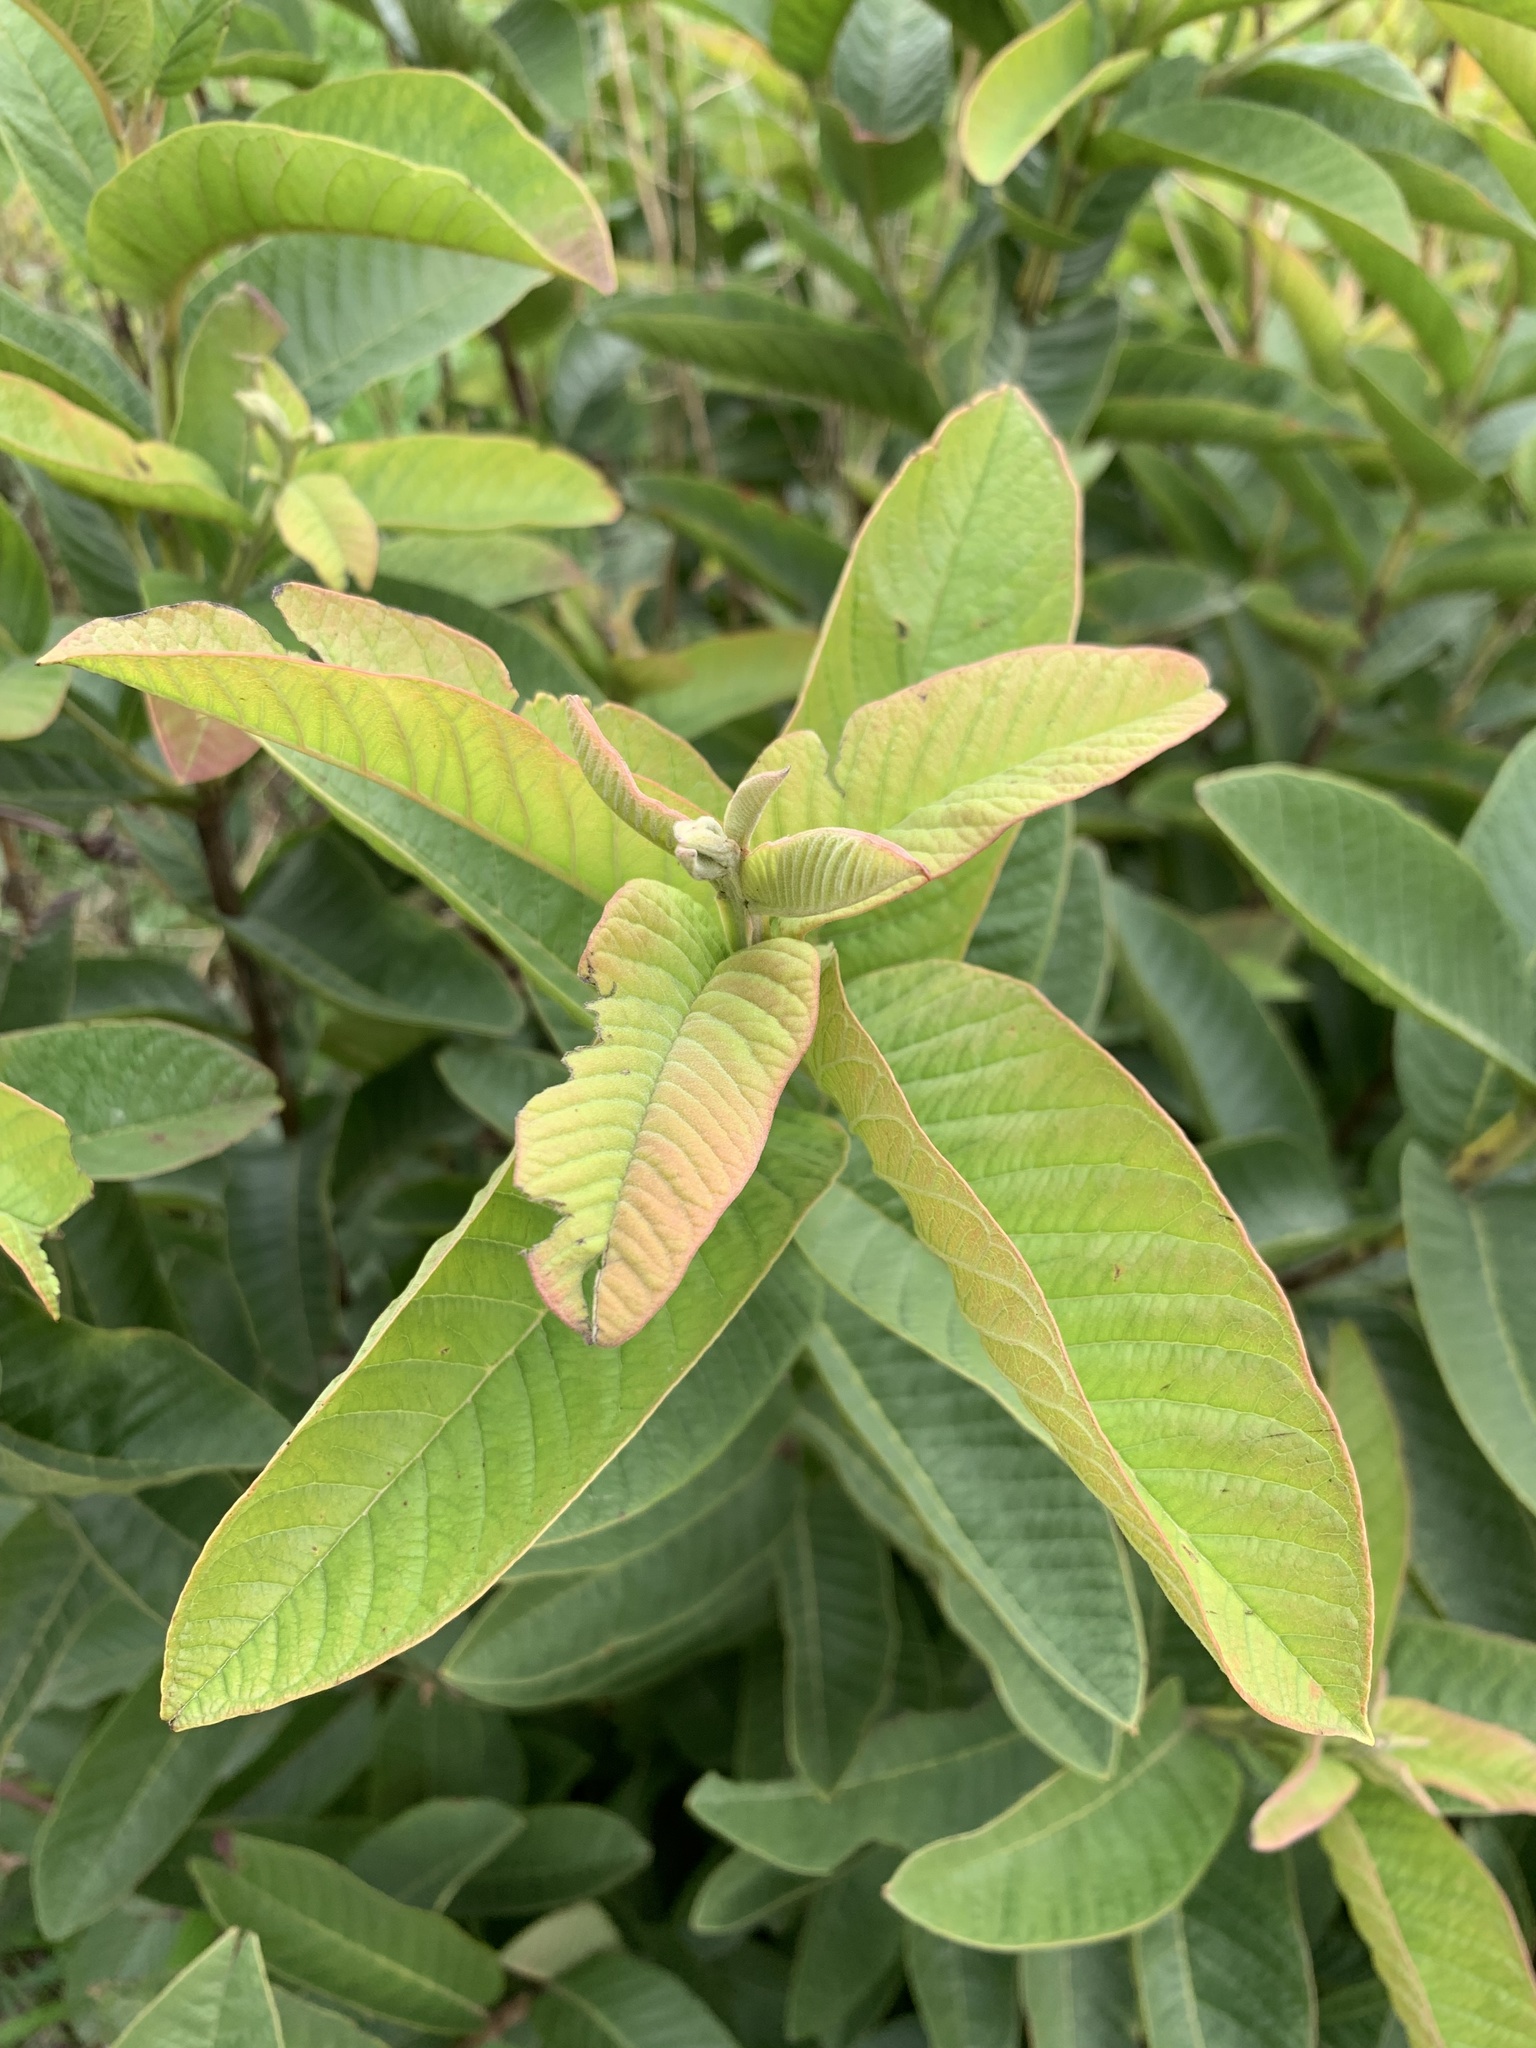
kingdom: Plantae
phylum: Tracheophyta
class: Magnoliopsida
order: Myrtales
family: Myrtaceae
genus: Psidium
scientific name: Psidium guajava
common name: Guava
